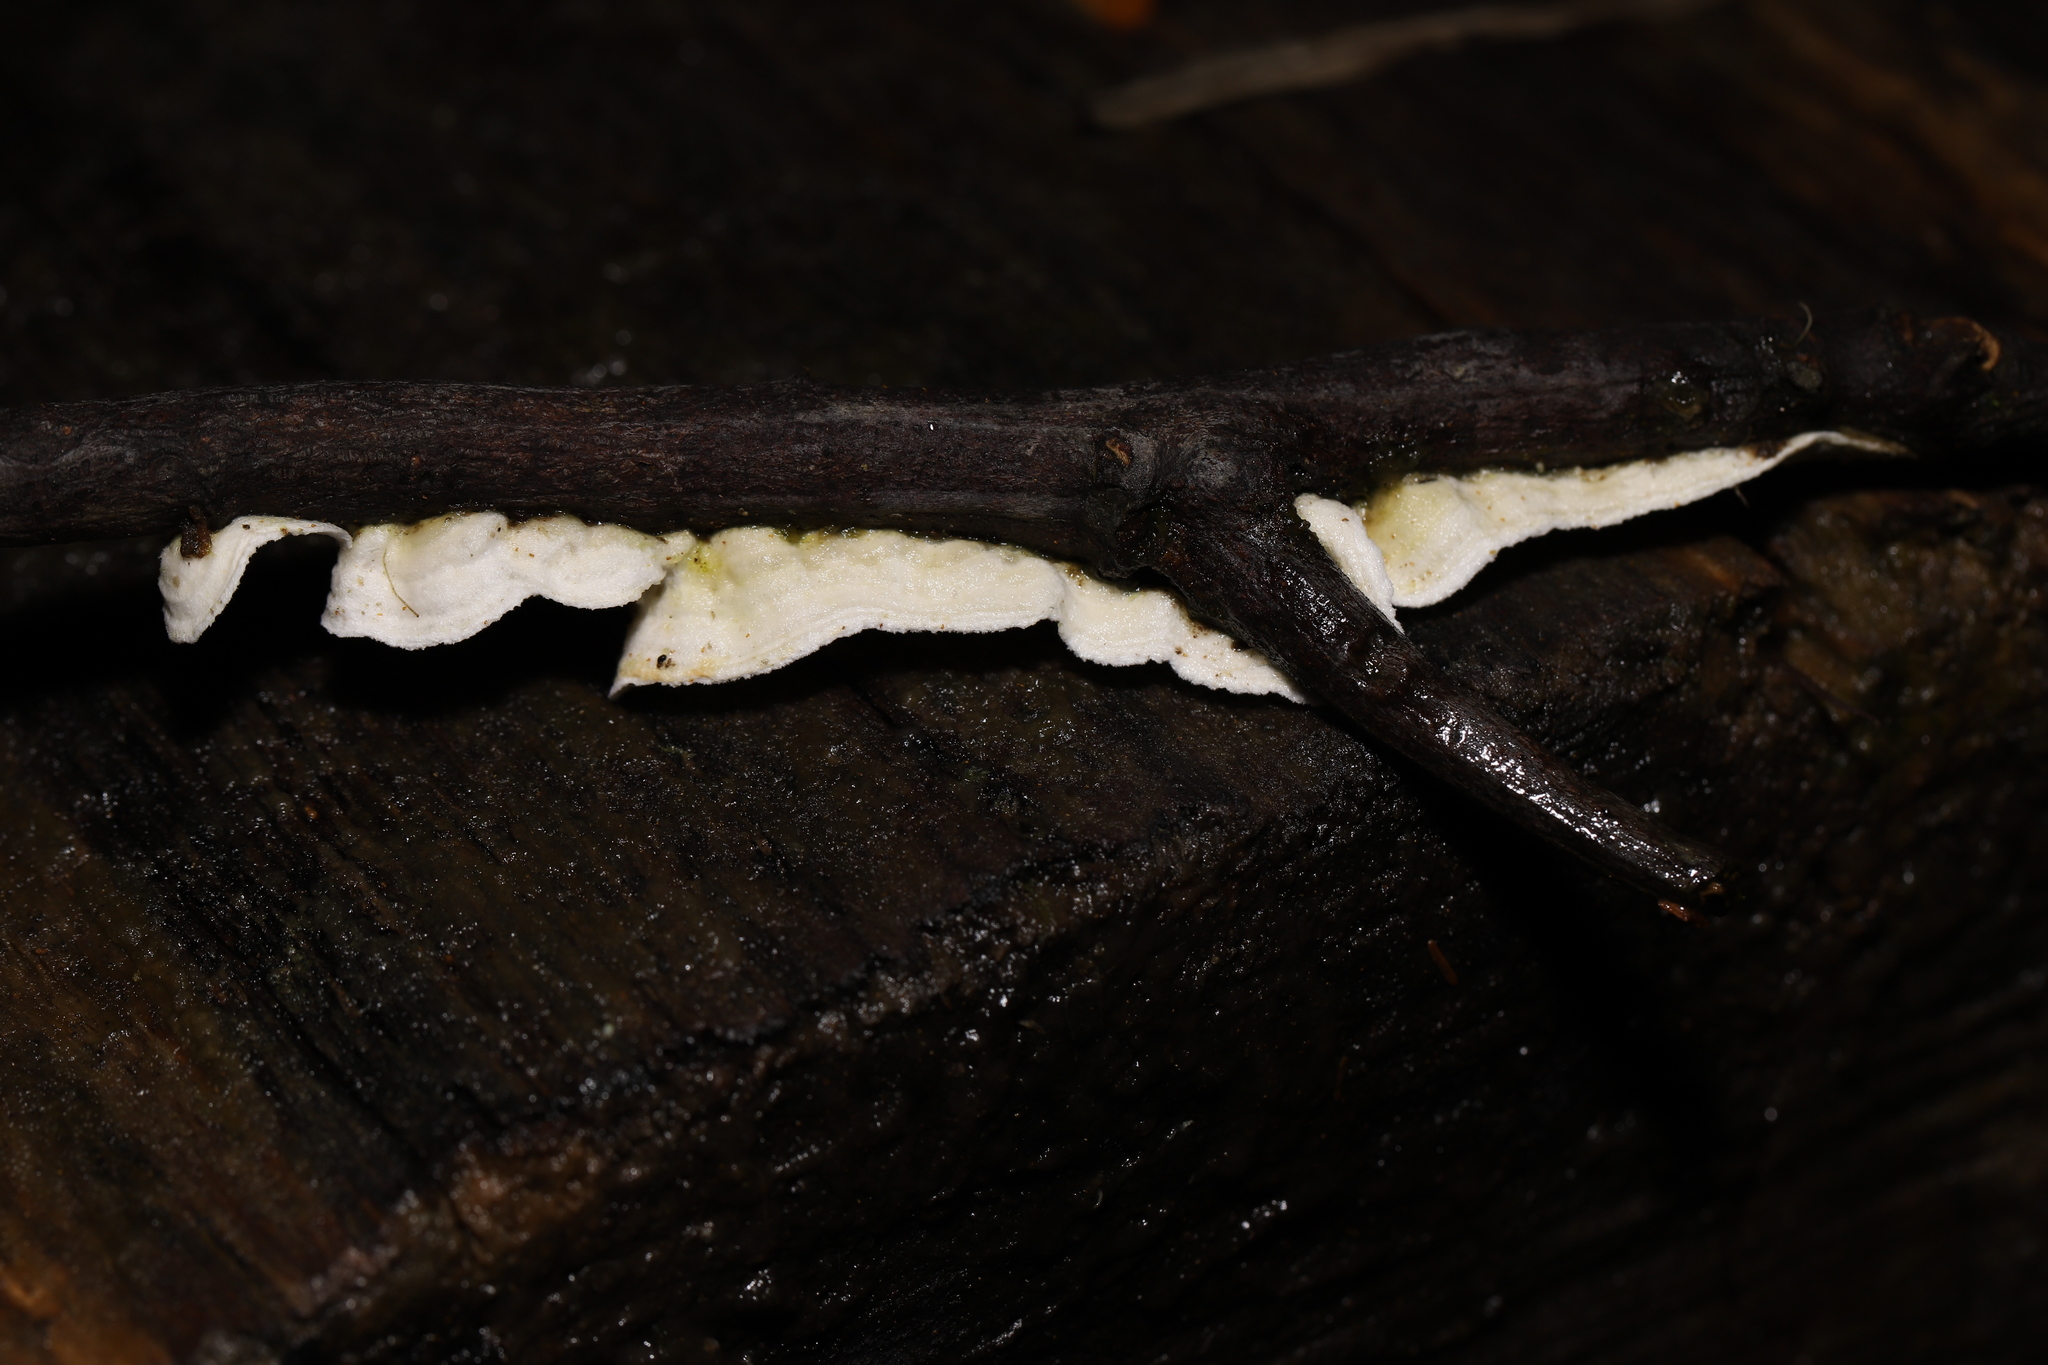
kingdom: Fungi
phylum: Basidiomycota
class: Agaricomycetes
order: Polyporales
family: Irpicaceae
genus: Byssomerulius
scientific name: Byssomerulius corium
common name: Netted crust
